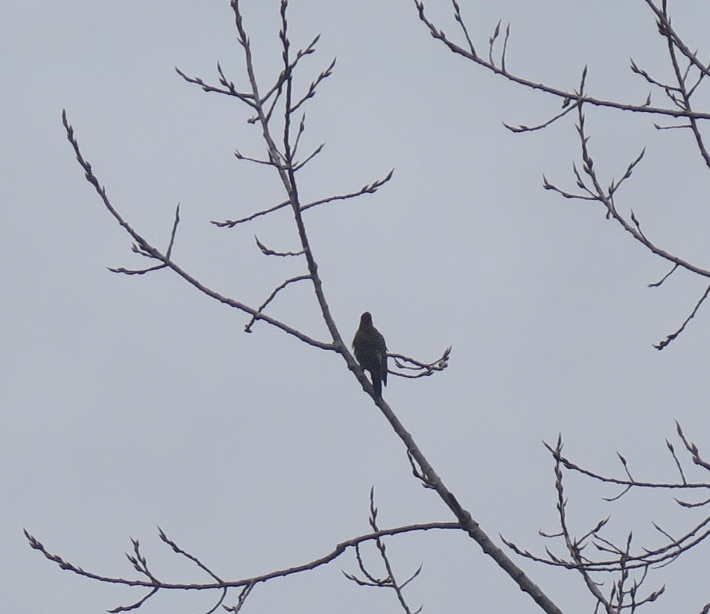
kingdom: Animalia
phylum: Chordata
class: Aves
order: Piciformes
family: Picidae
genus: Colaptes
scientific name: Colaptes melanochloros
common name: Green-barred woodpecker
